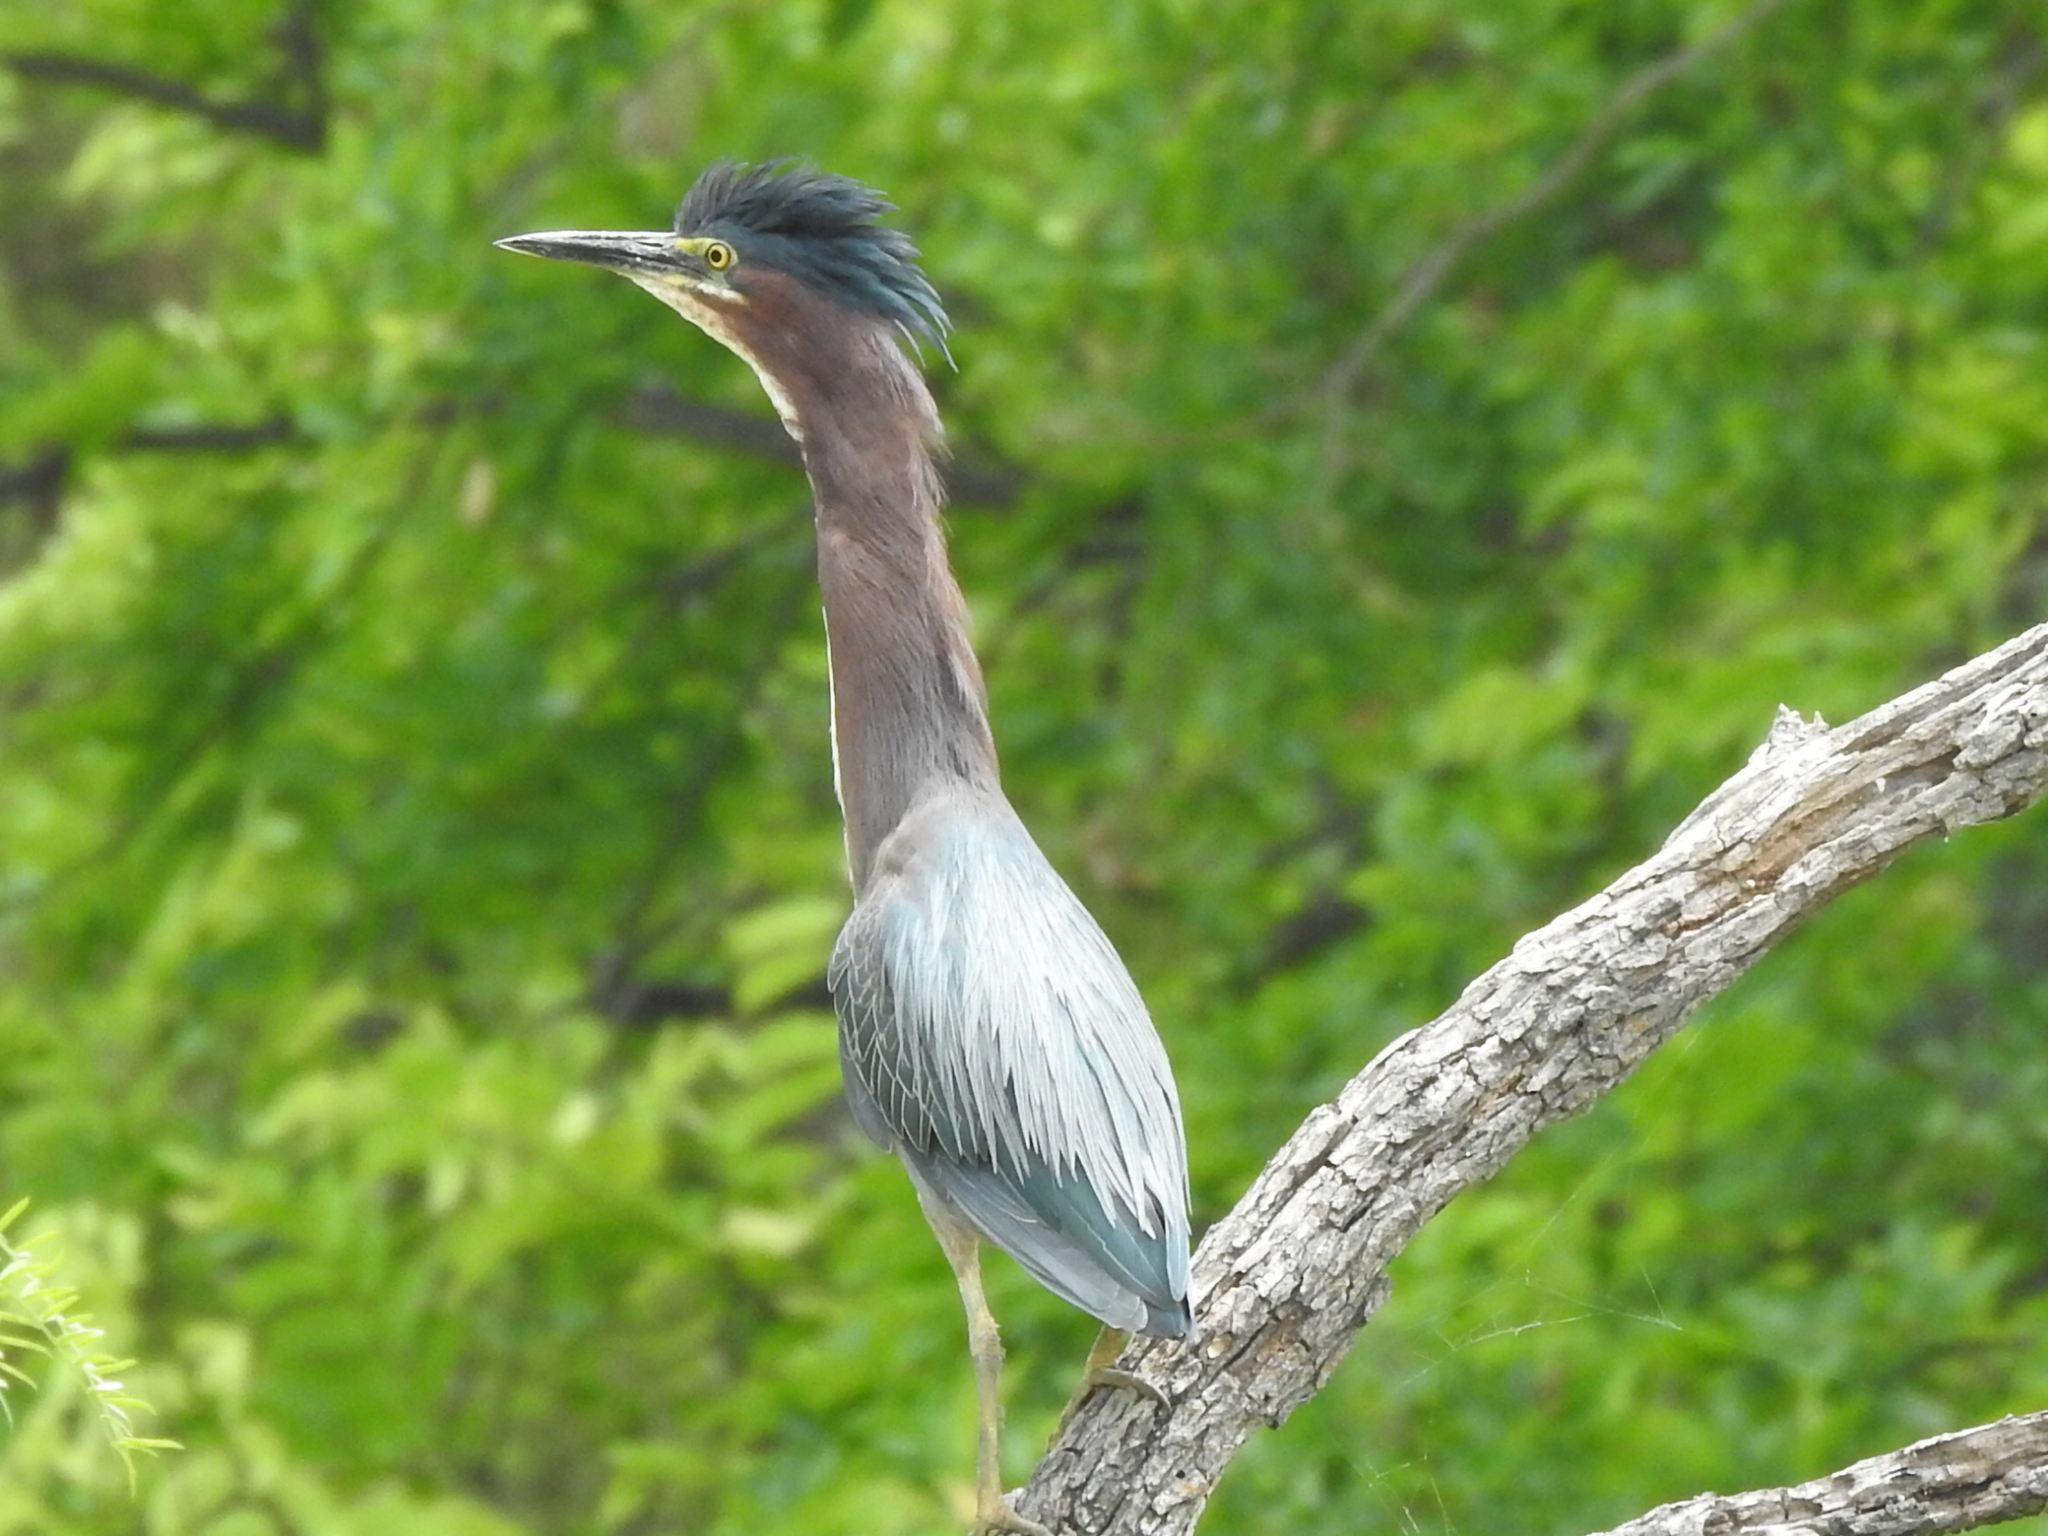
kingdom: Animalia
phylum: Chordata
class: Aves
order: Pelecaniformes
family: Ardeidae
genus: Butorides
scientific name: Butorides virescens
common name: Green heron
